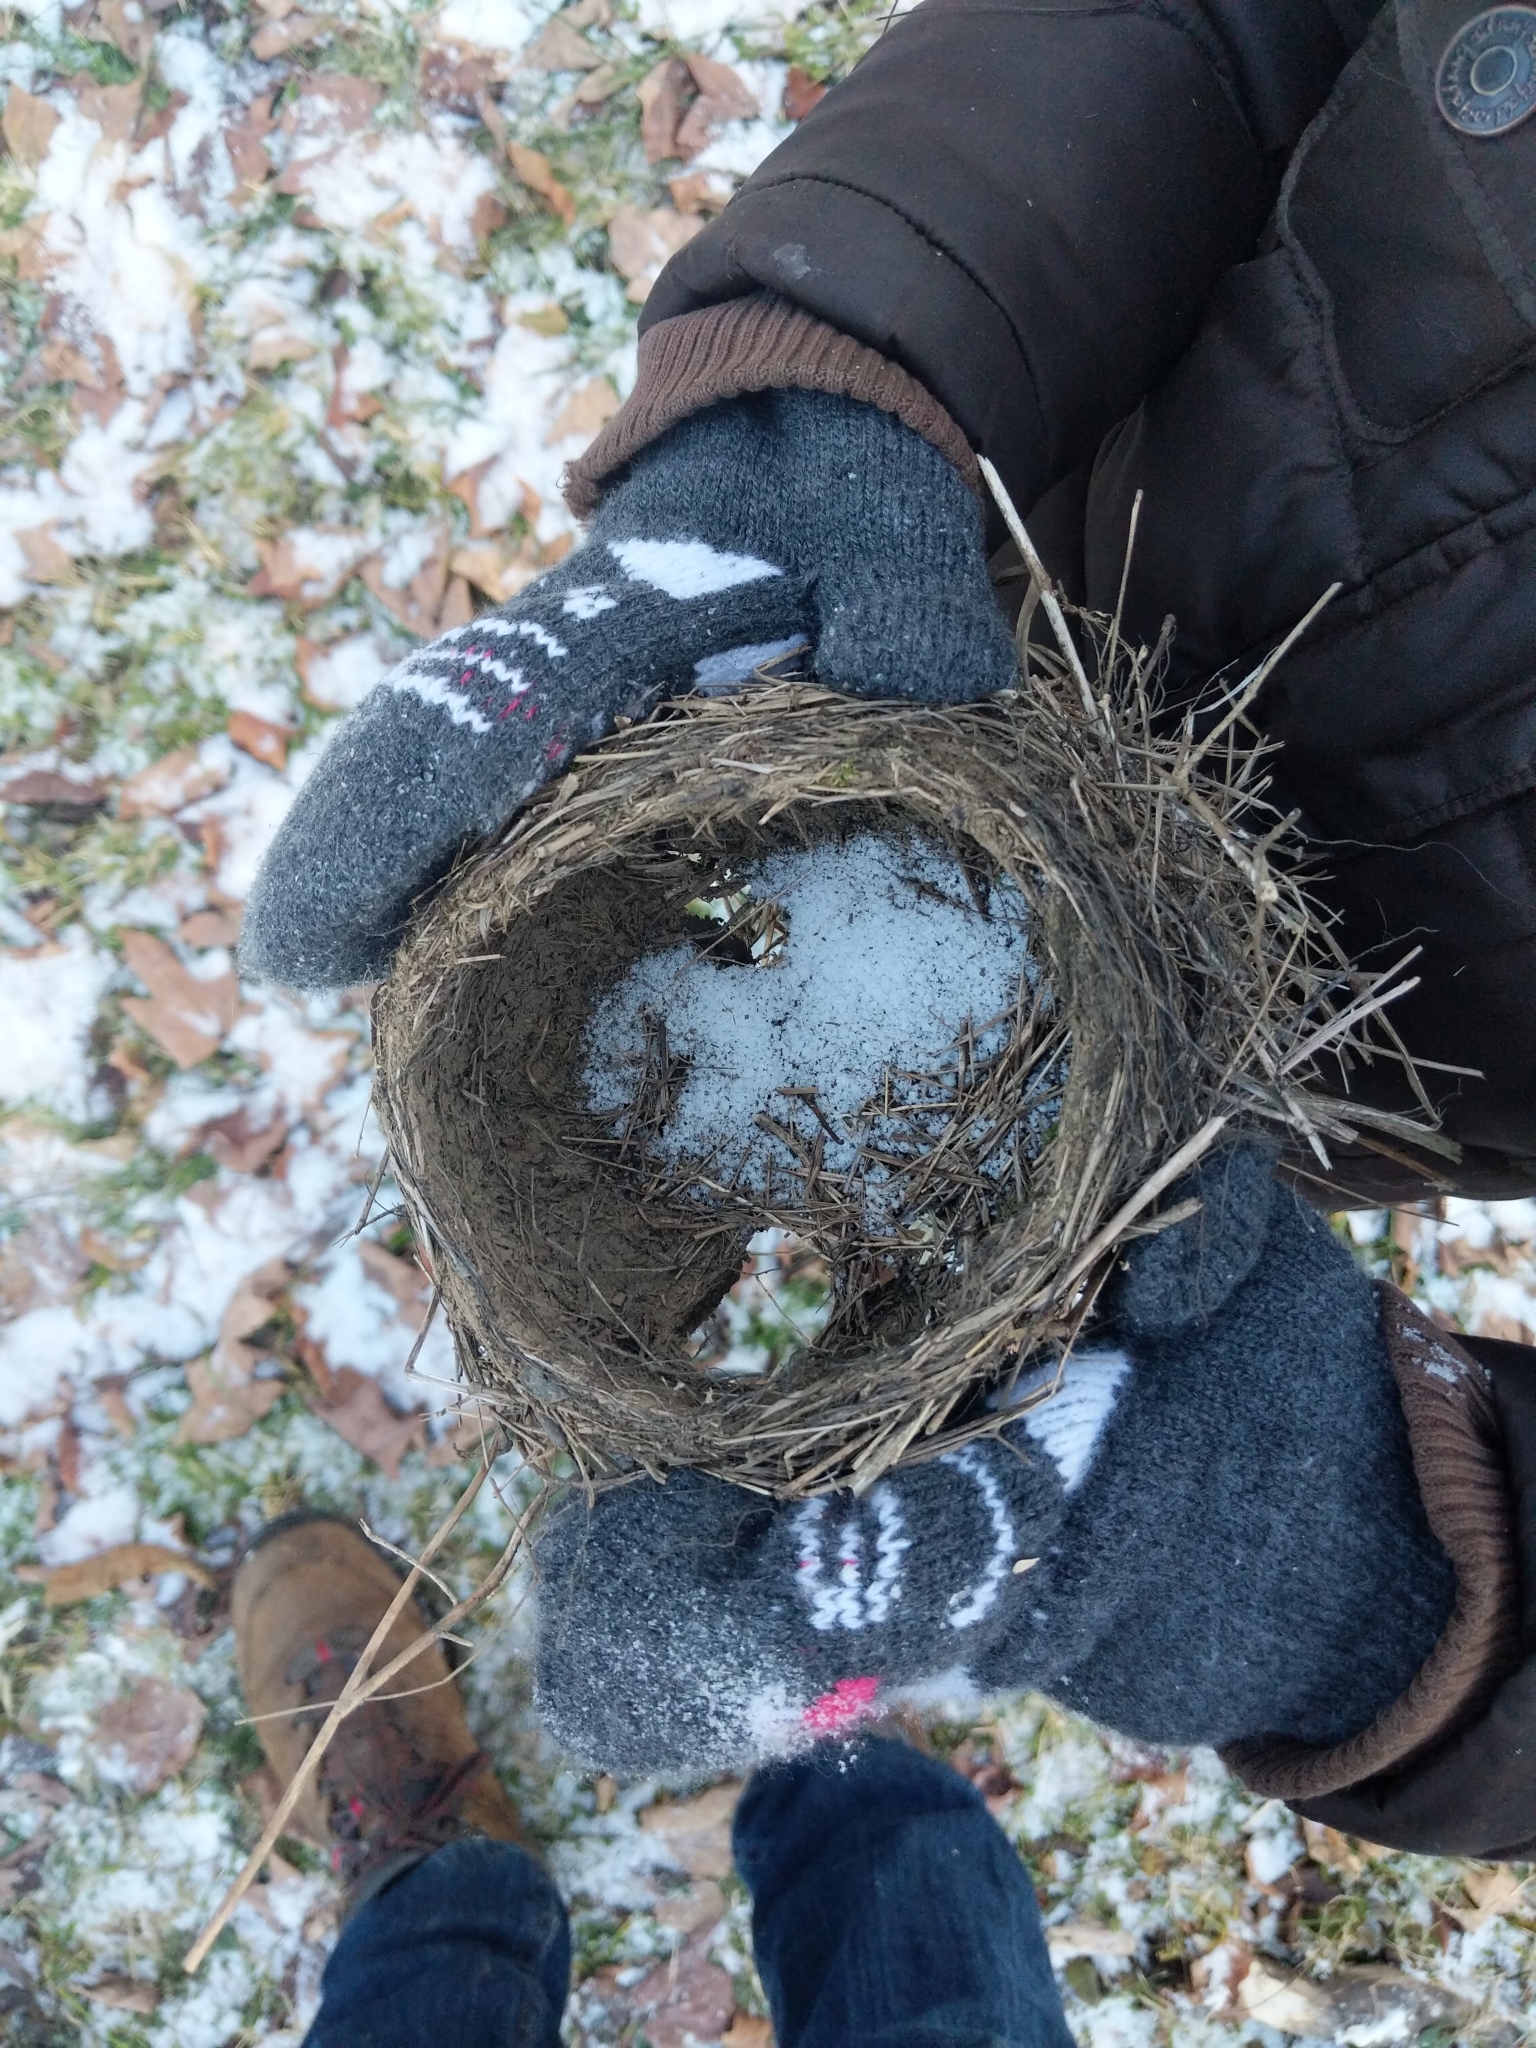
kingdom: Animalia
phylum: Chordata
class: Aves
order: Passeriformes
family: Turdidae
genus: Turdus
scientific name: Turdus migratorius
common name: American robin
